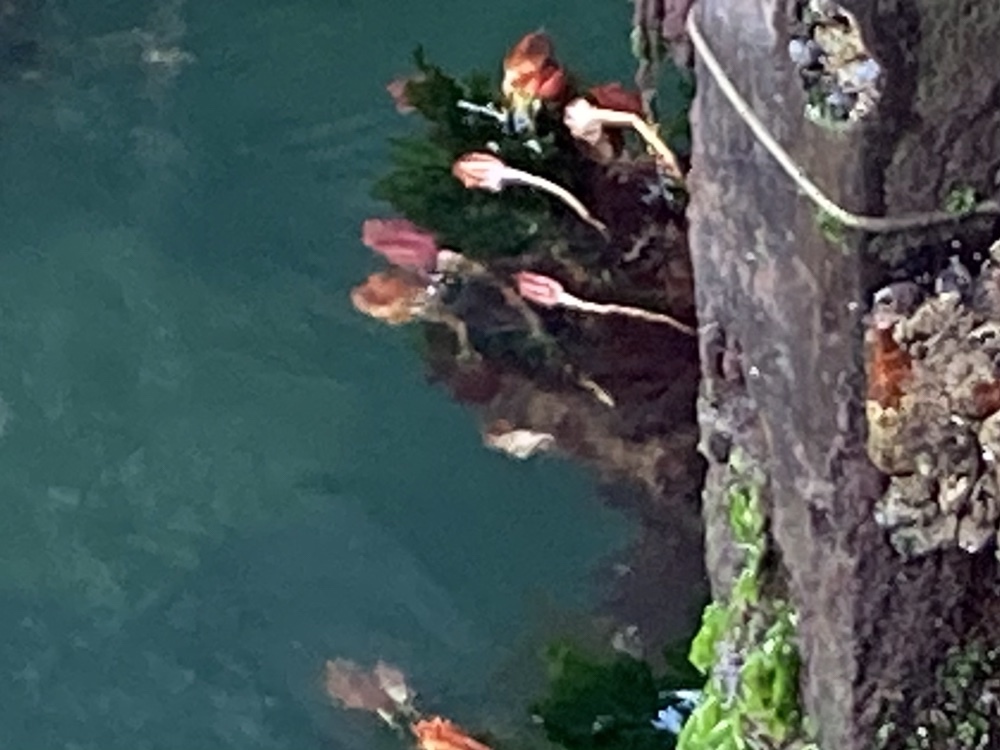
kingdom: Animalia
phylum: Chordata
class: Ascidiacea
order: Stolidobranchia
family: Pyuridae
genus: Pyura
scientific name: Pyura pachydermatina
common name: Sea tulip
